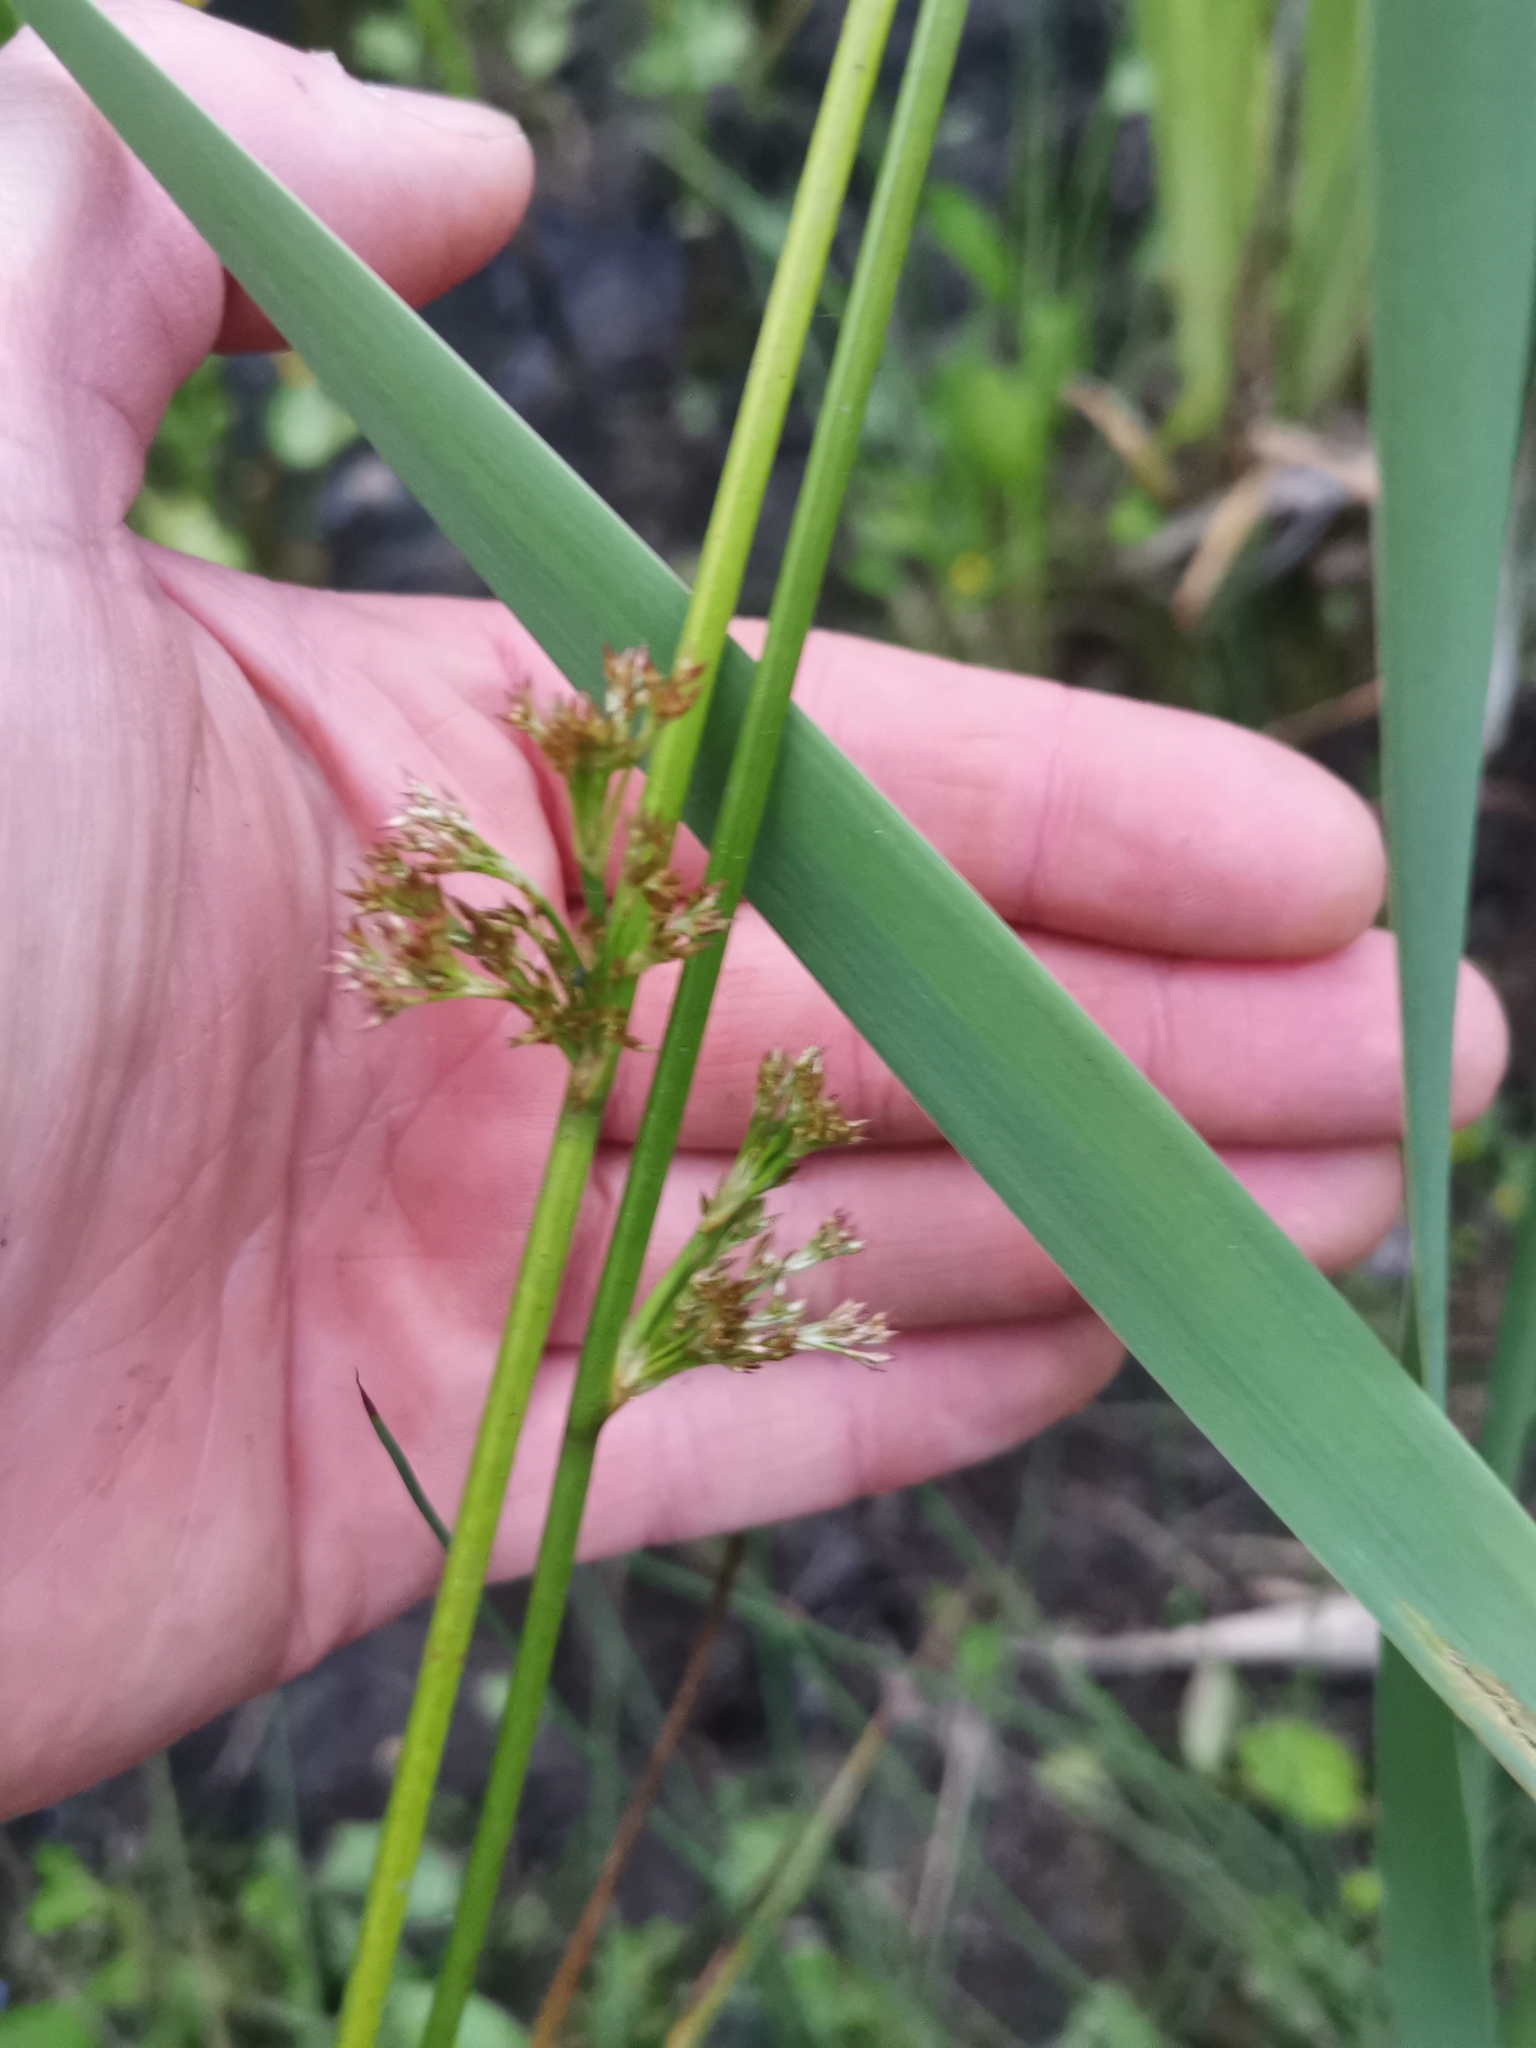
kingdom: Plantae
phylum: Tracheophyta
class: Liliopsida
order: Poales
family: Juncaceae
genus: Juncus
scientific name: Juncus effusus
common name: Soft rush
